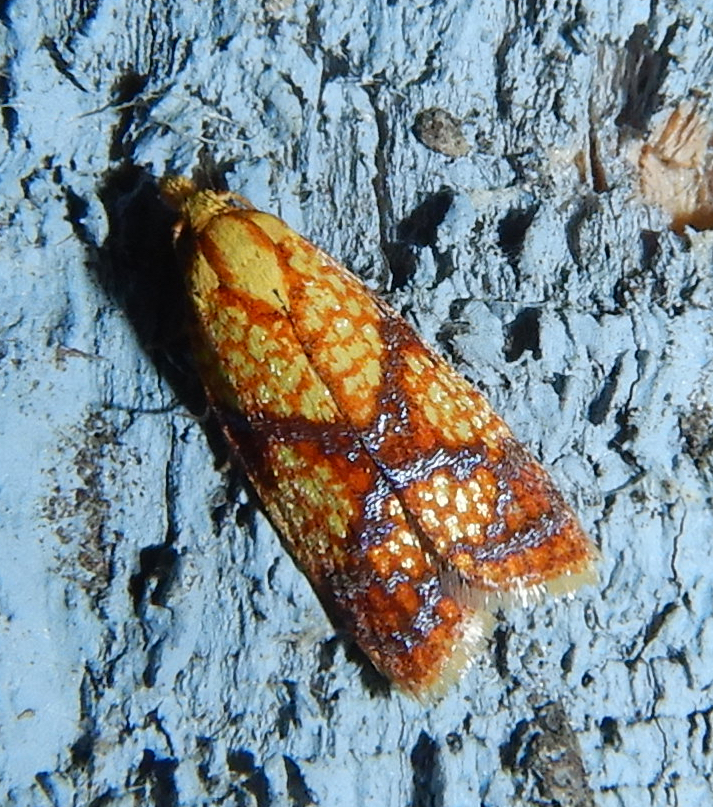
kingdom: Animalia
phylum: Arthropoda
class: Insecta
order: Lepidoptera
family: Tortricidae
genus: Sparganothis
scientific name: Sparganothis lycopodiana
